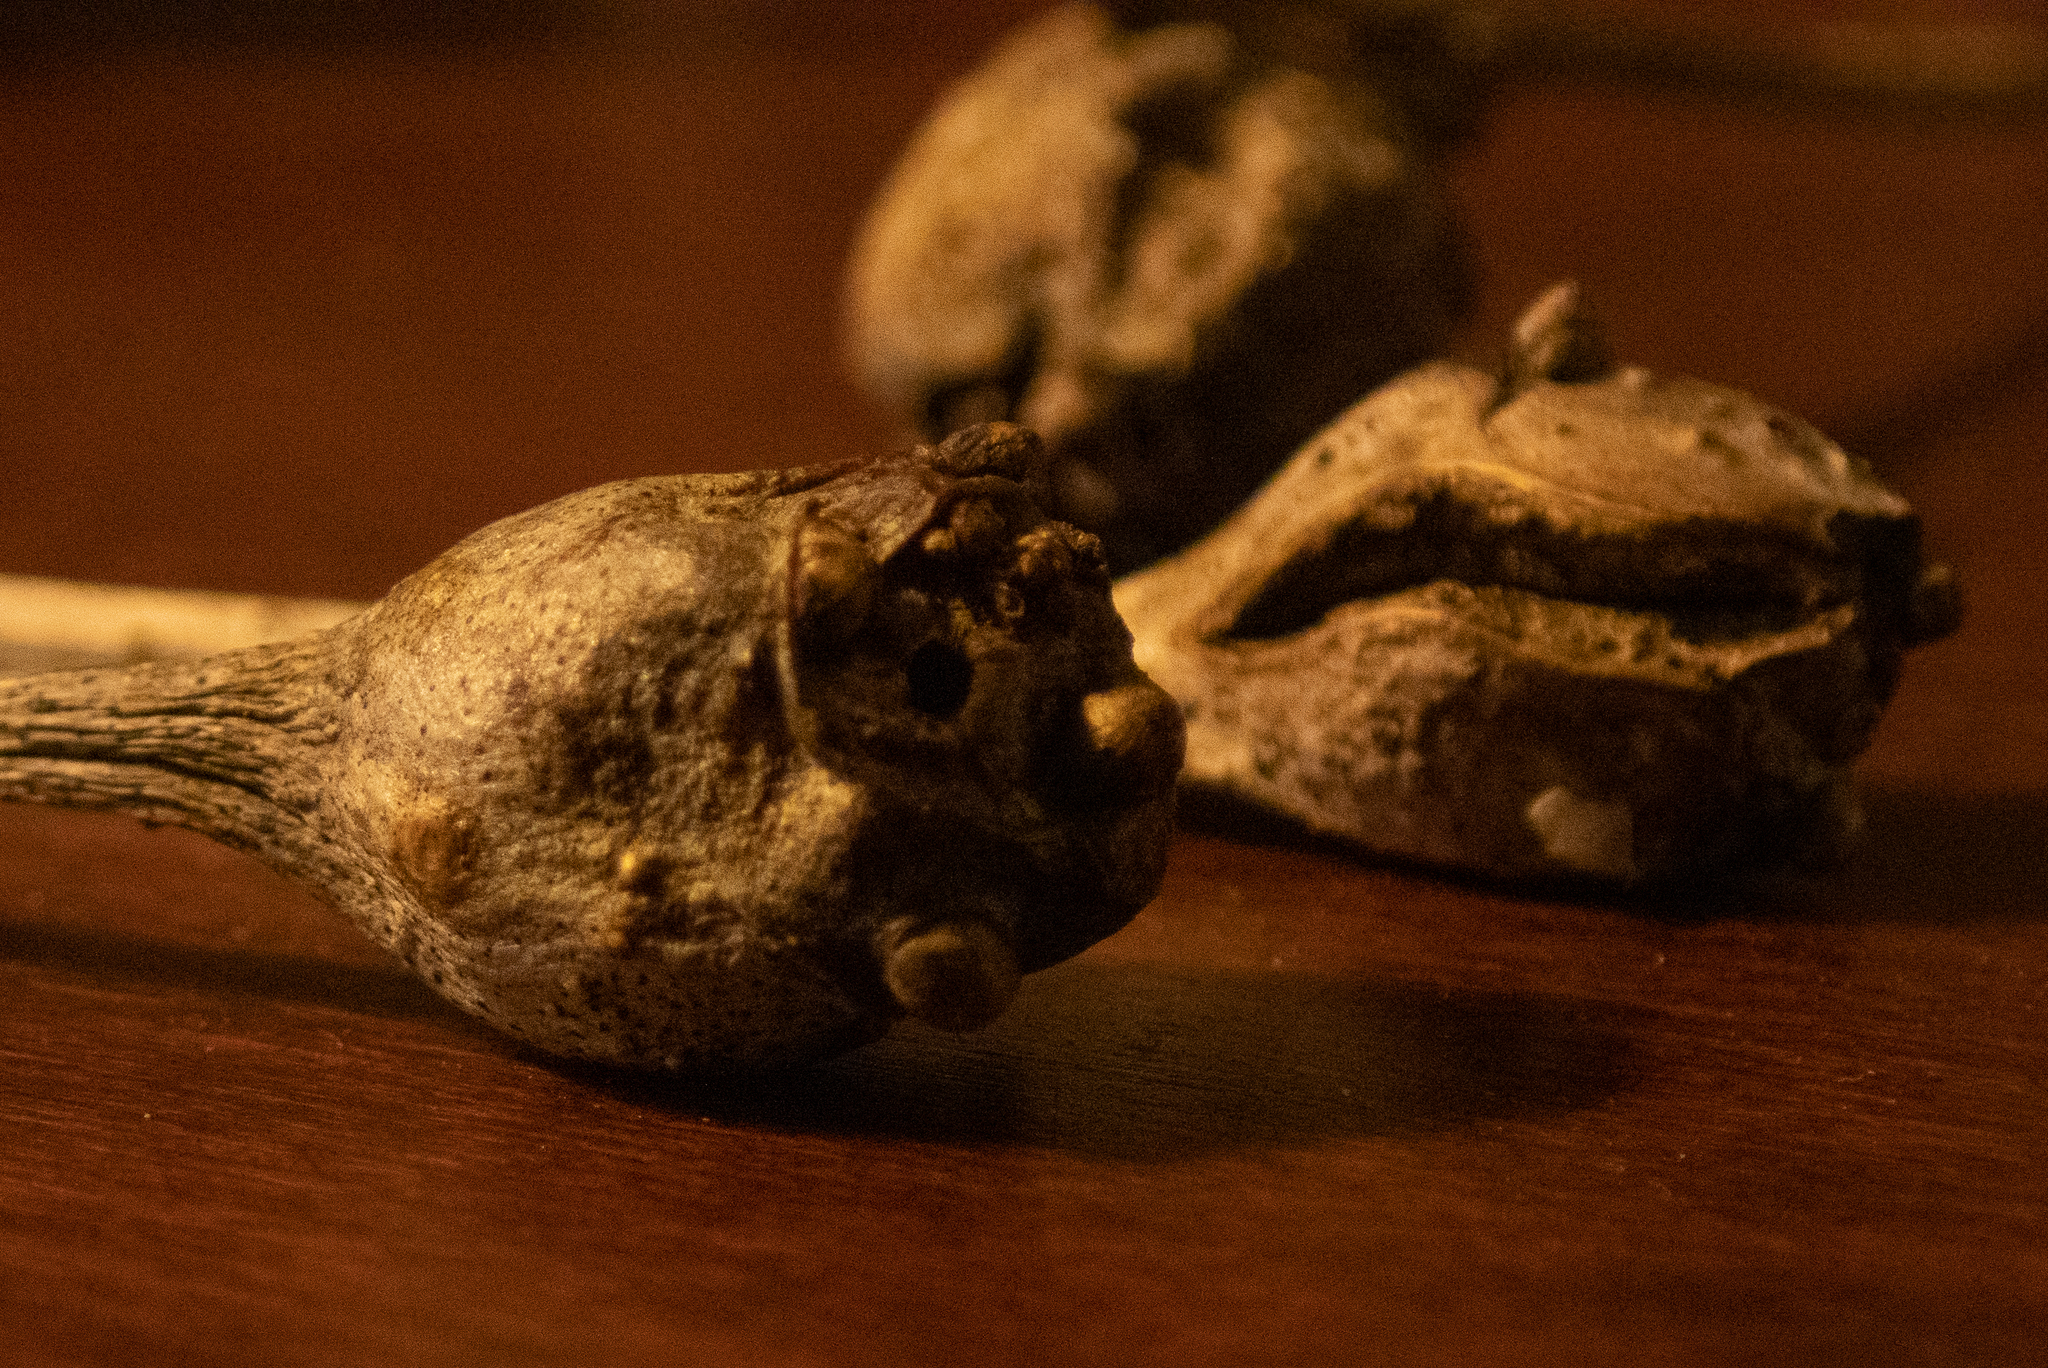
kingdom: Animalia
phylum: Arthropoda
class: Insecta
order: Hymenoptera
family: Cynipidae
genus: Callirhytis
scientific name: Callirhytis clavula
